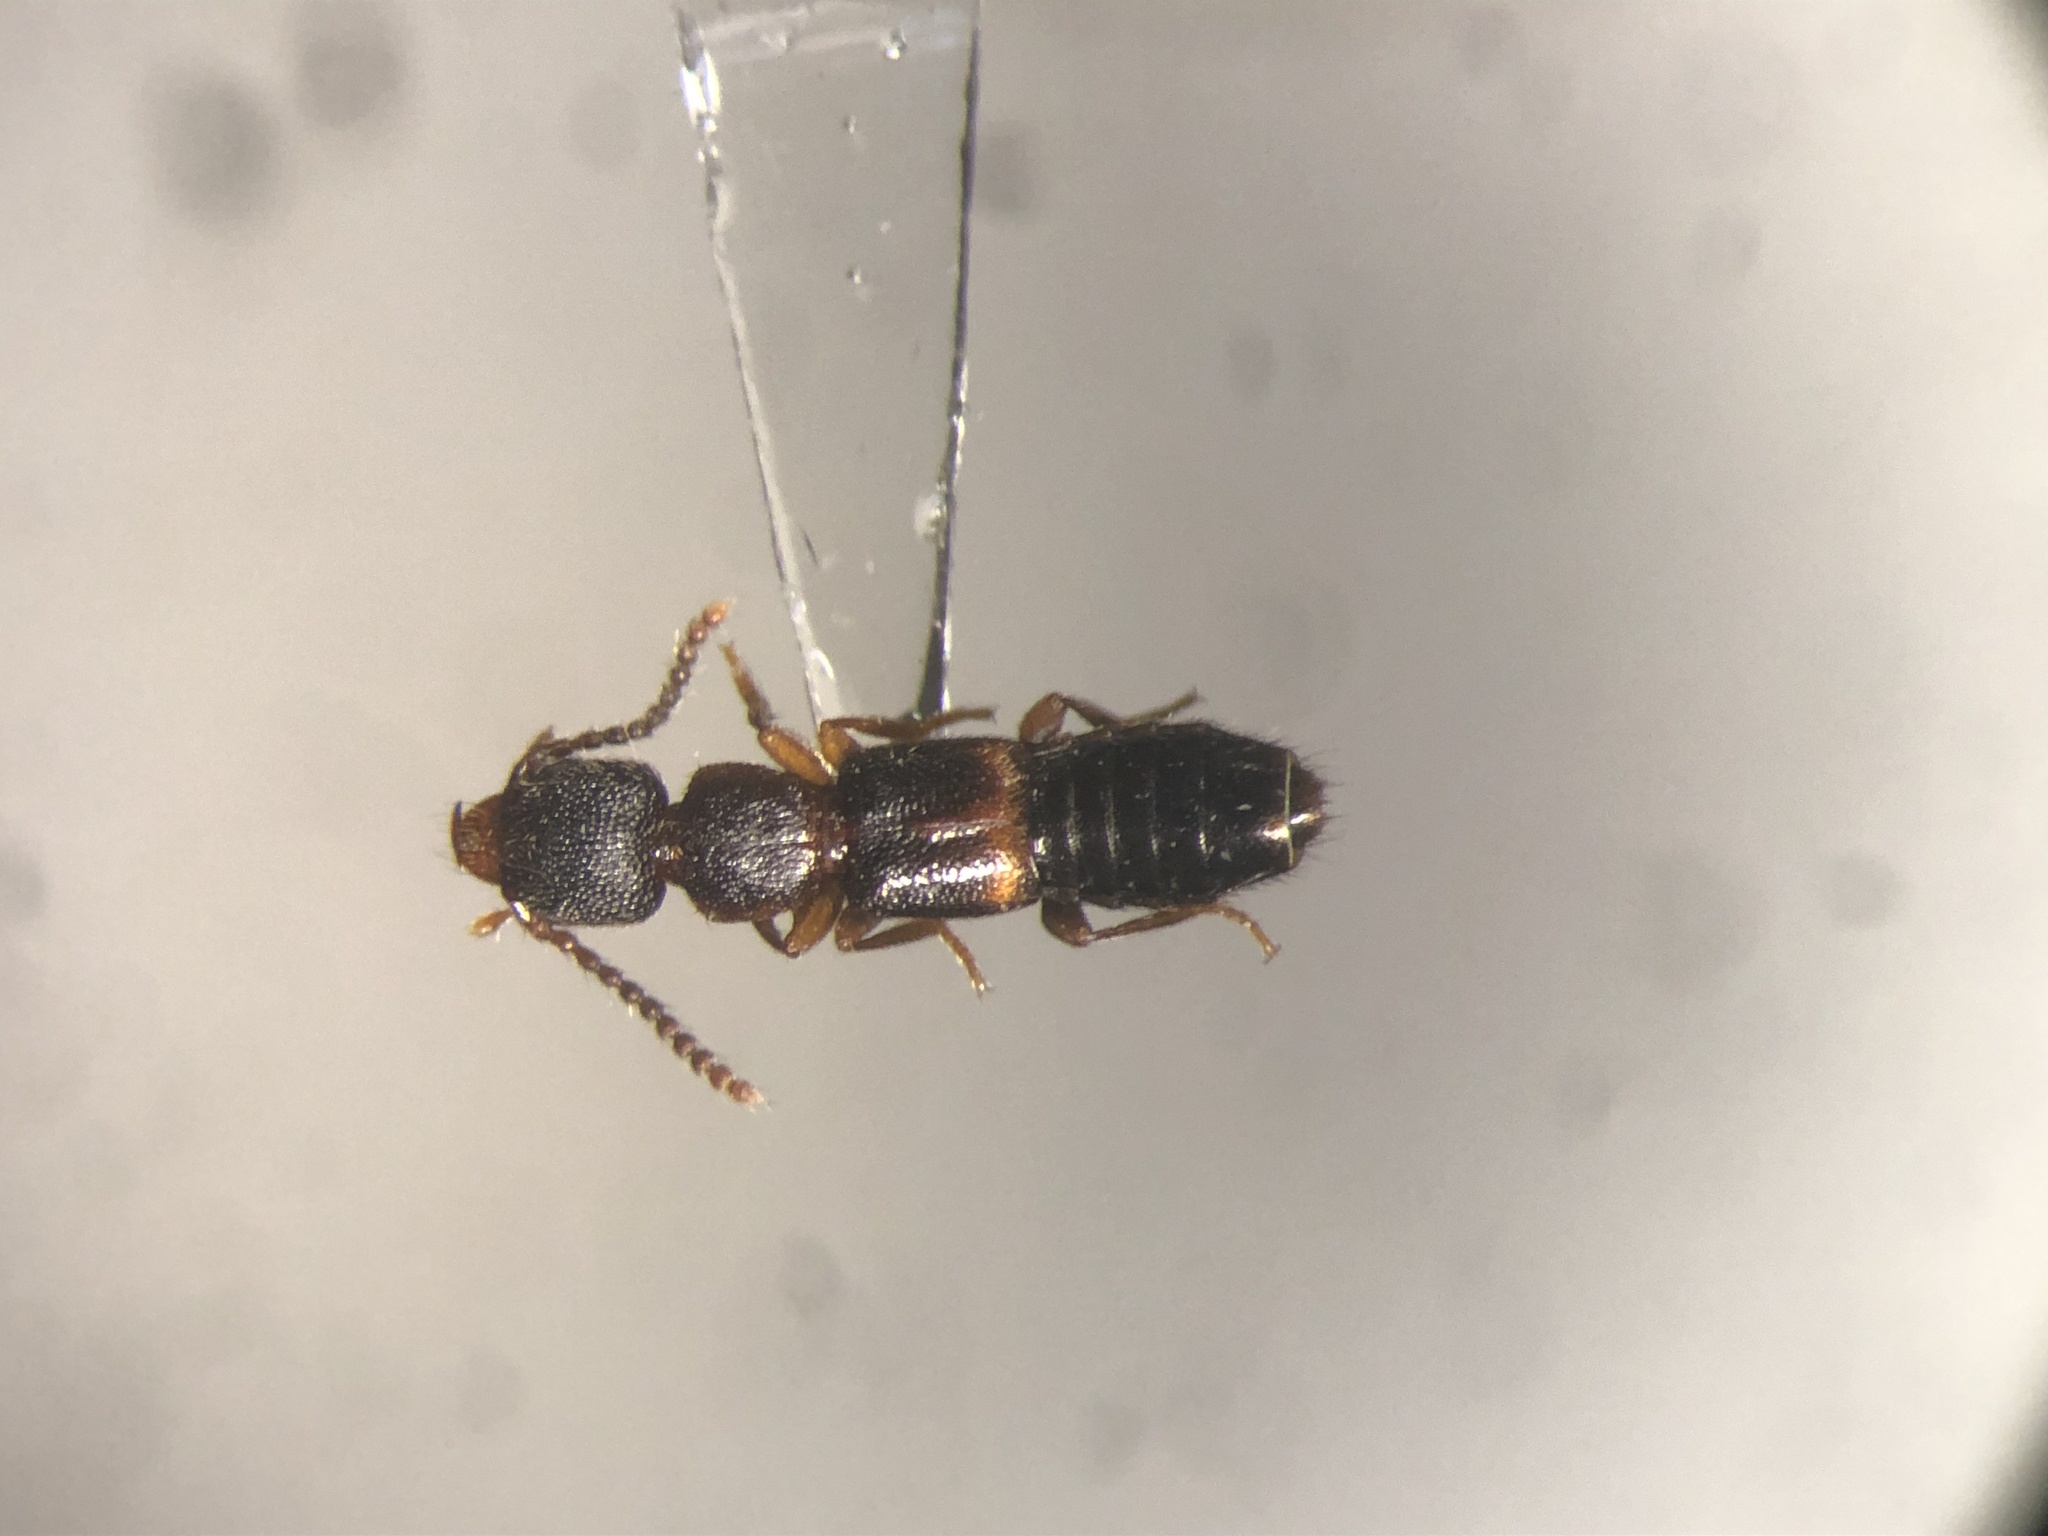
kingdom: Animalia
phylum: Arthropoda
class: Insecta
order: Coleoptera
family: Staphylinidae
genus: Sunius
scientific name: Sunius confluentus
